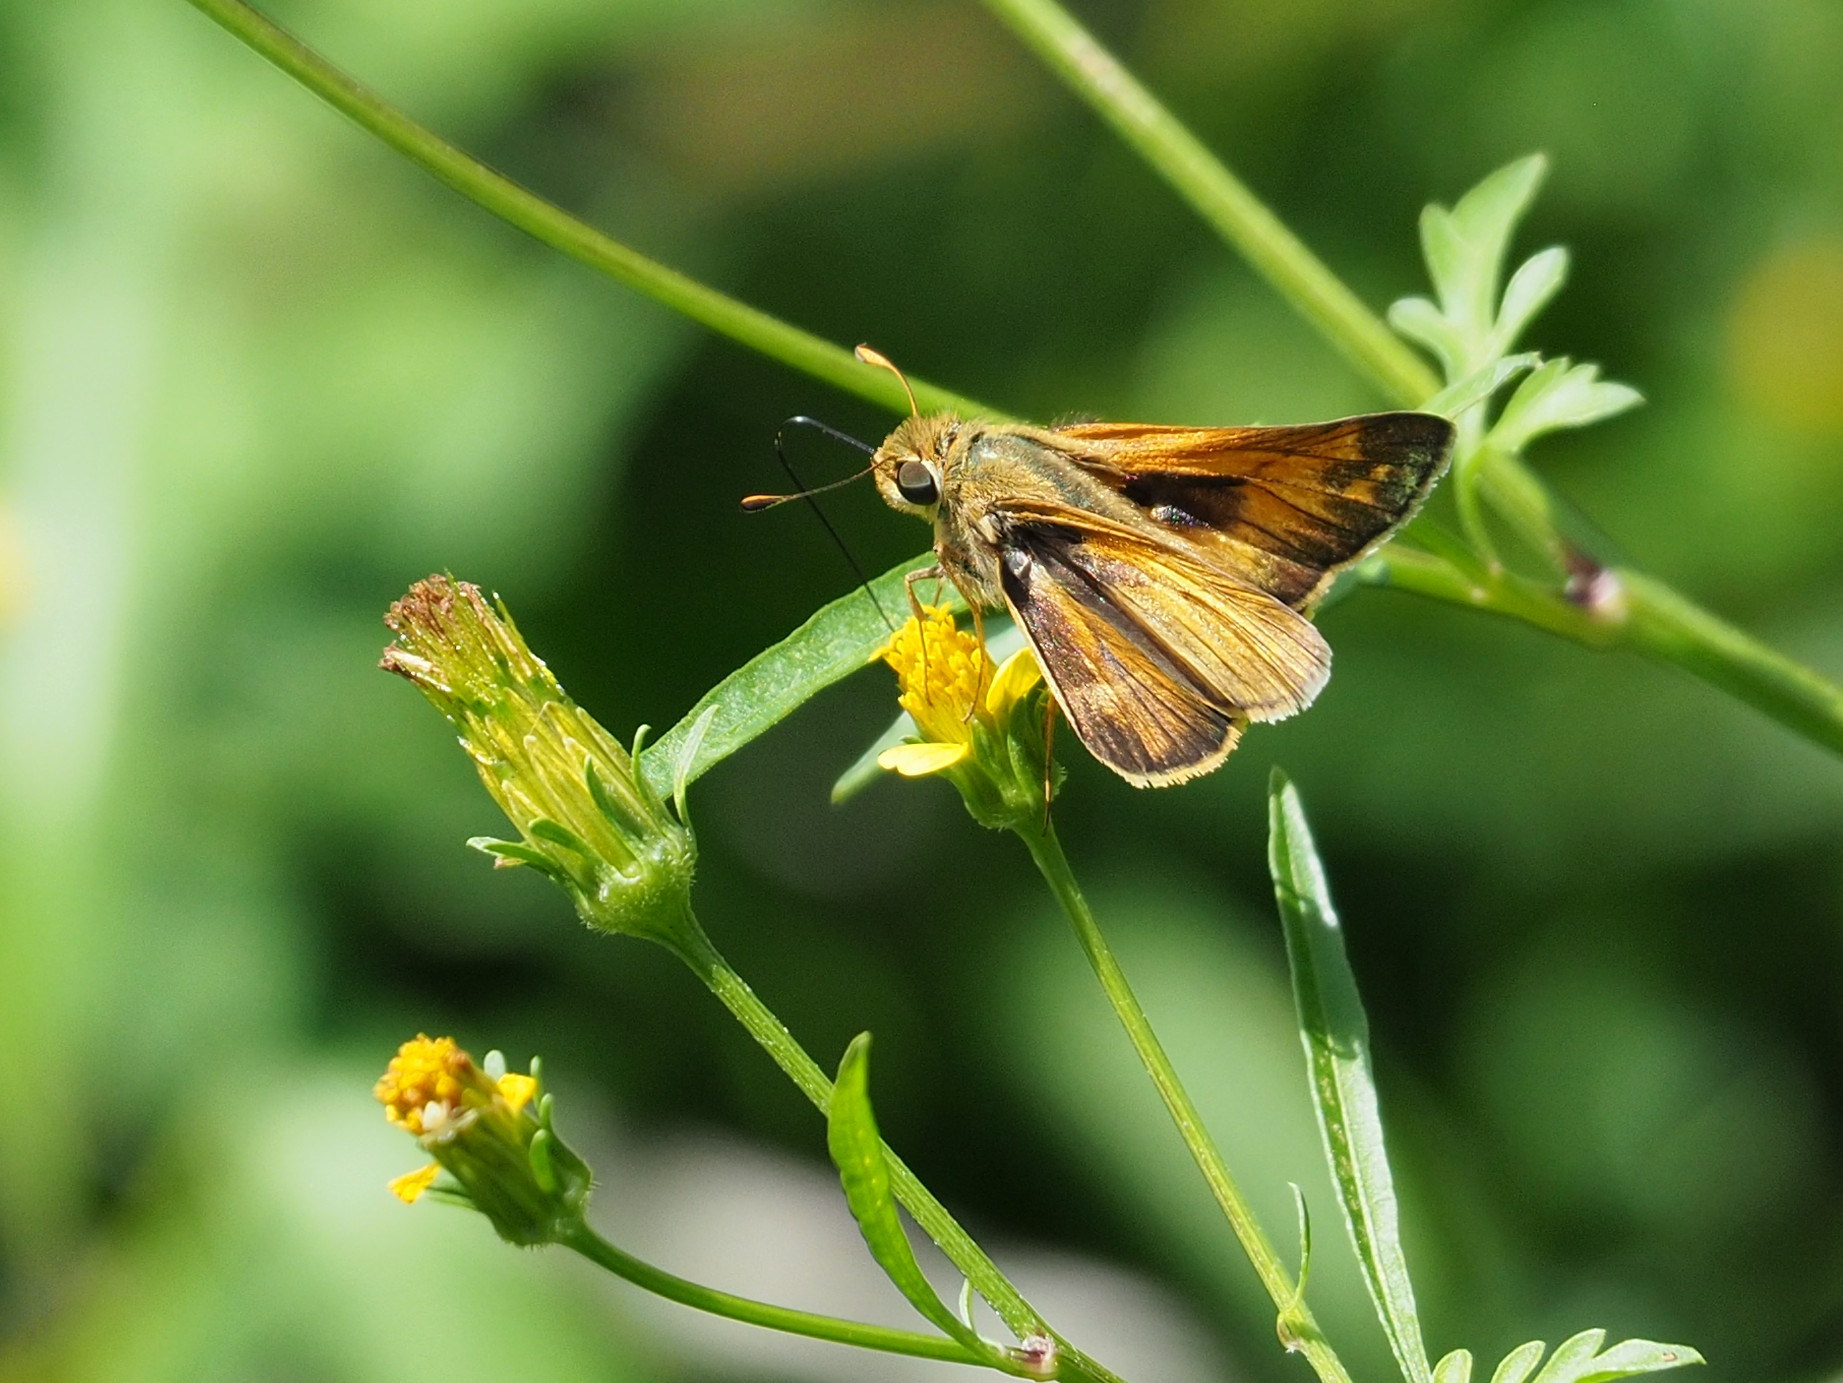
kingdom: Animalia
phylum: Arthropoda
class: Insecta
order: Lepidoptera
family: Hesperiidae
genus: Atalopedes
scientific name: Atalopedes
